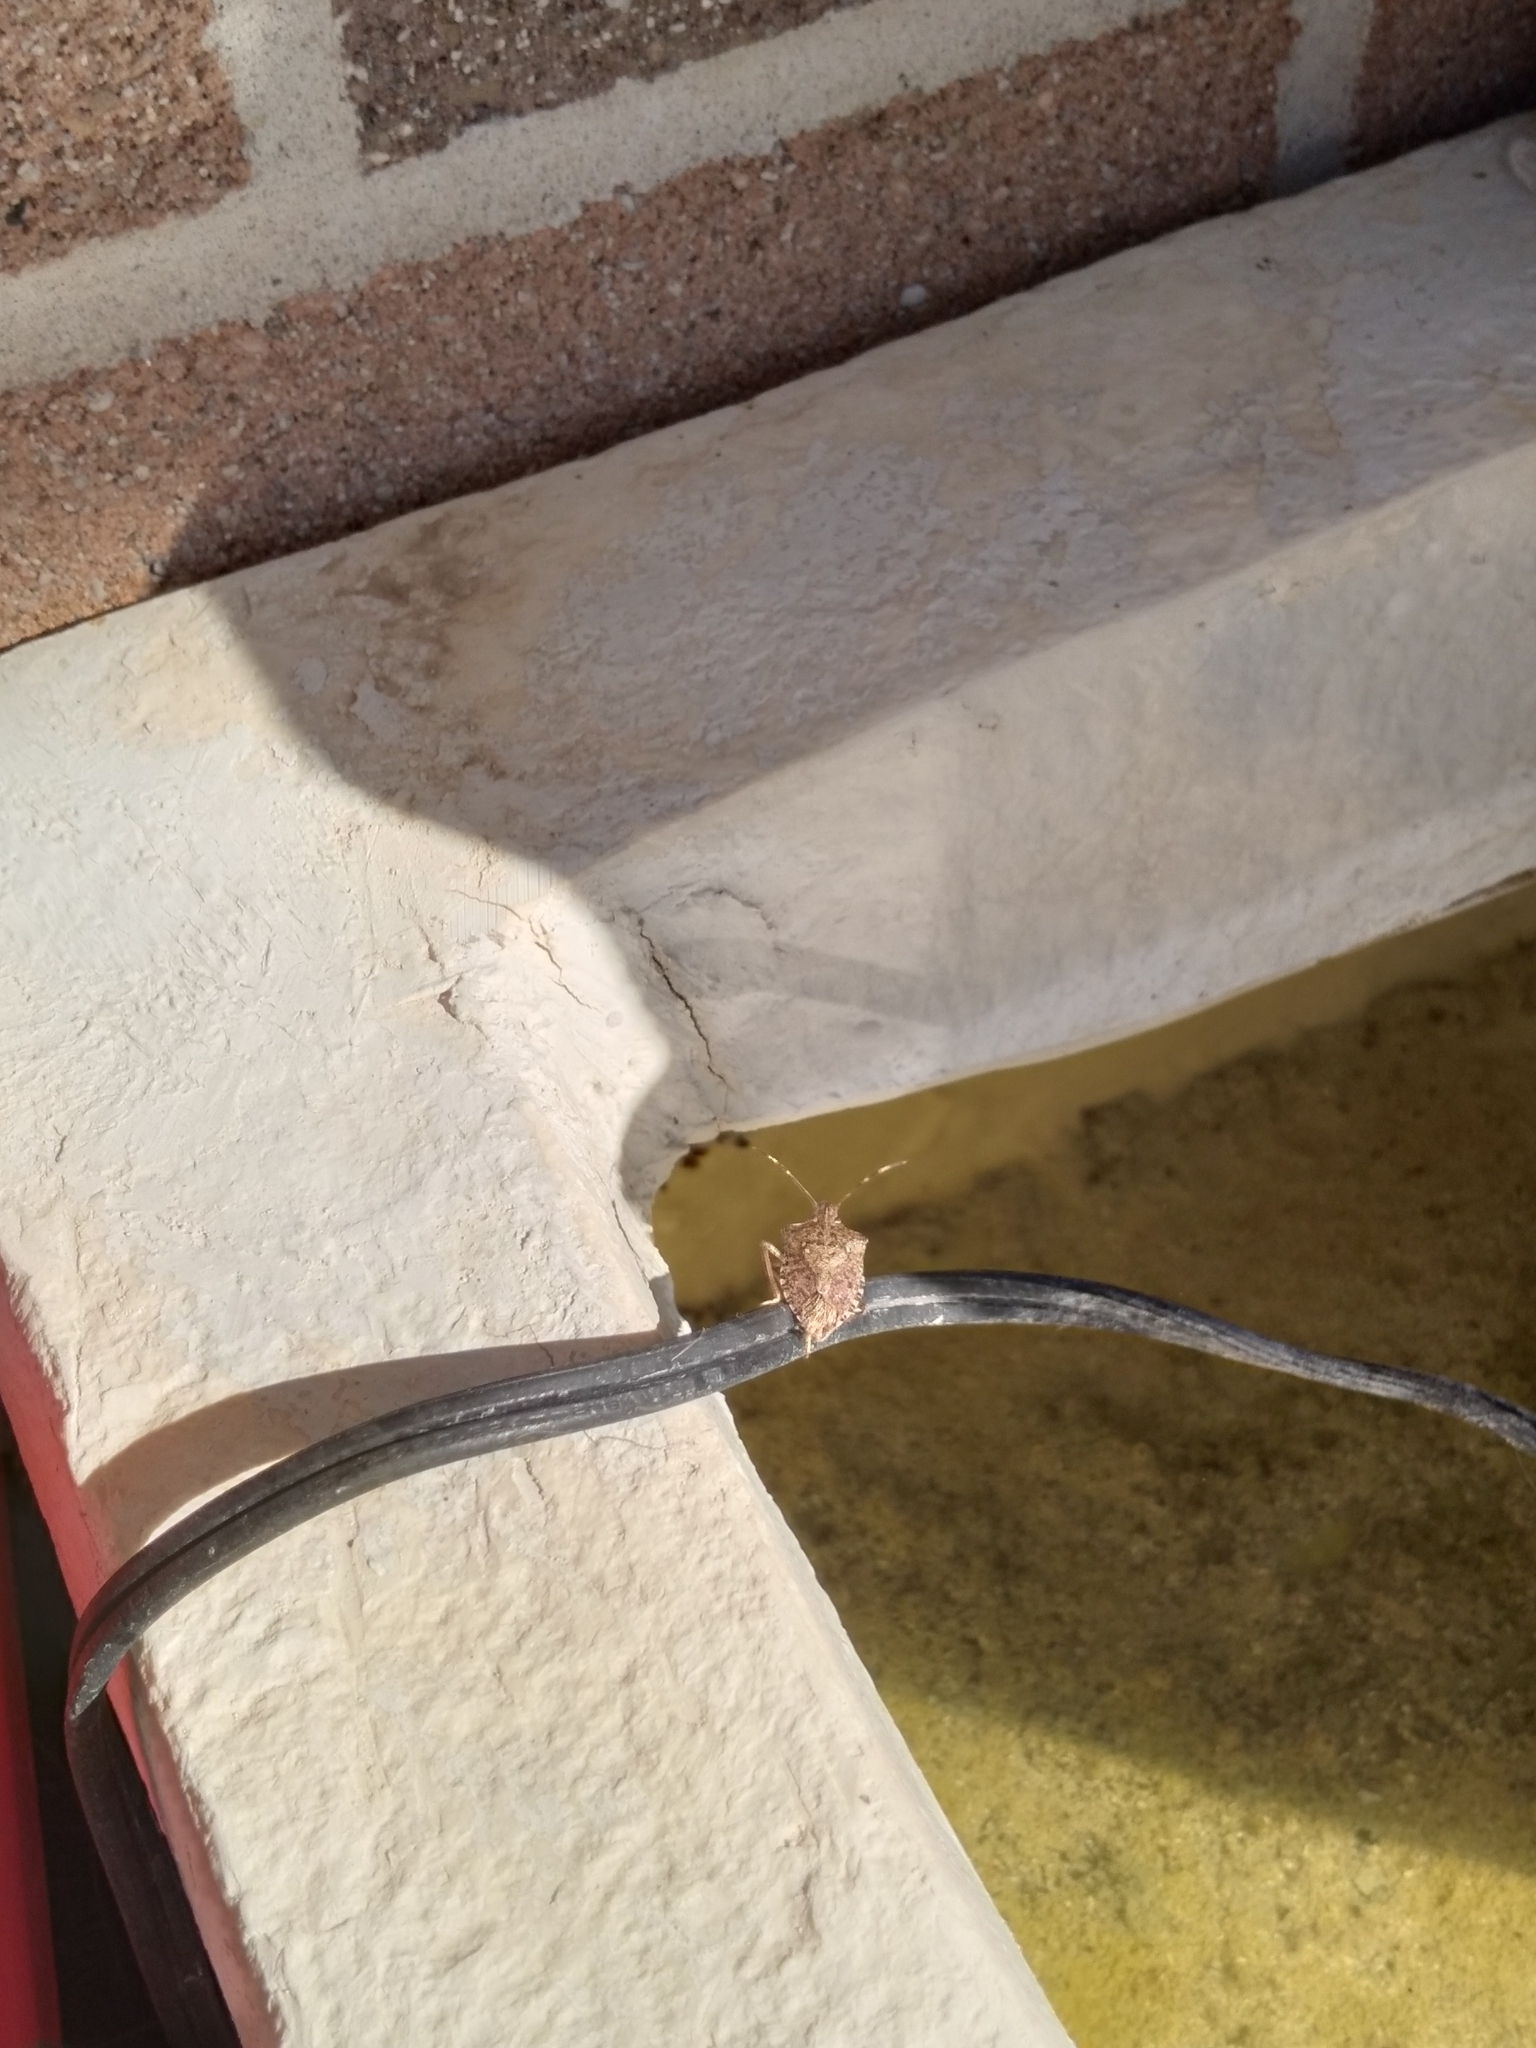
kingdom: Animalia
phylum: Arthropoda
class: Insecta
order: Hemiptera
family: Pentatomidae
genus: Halyomorpha
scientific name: Halyomorpha halys
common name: Brown marmorated stink bug
